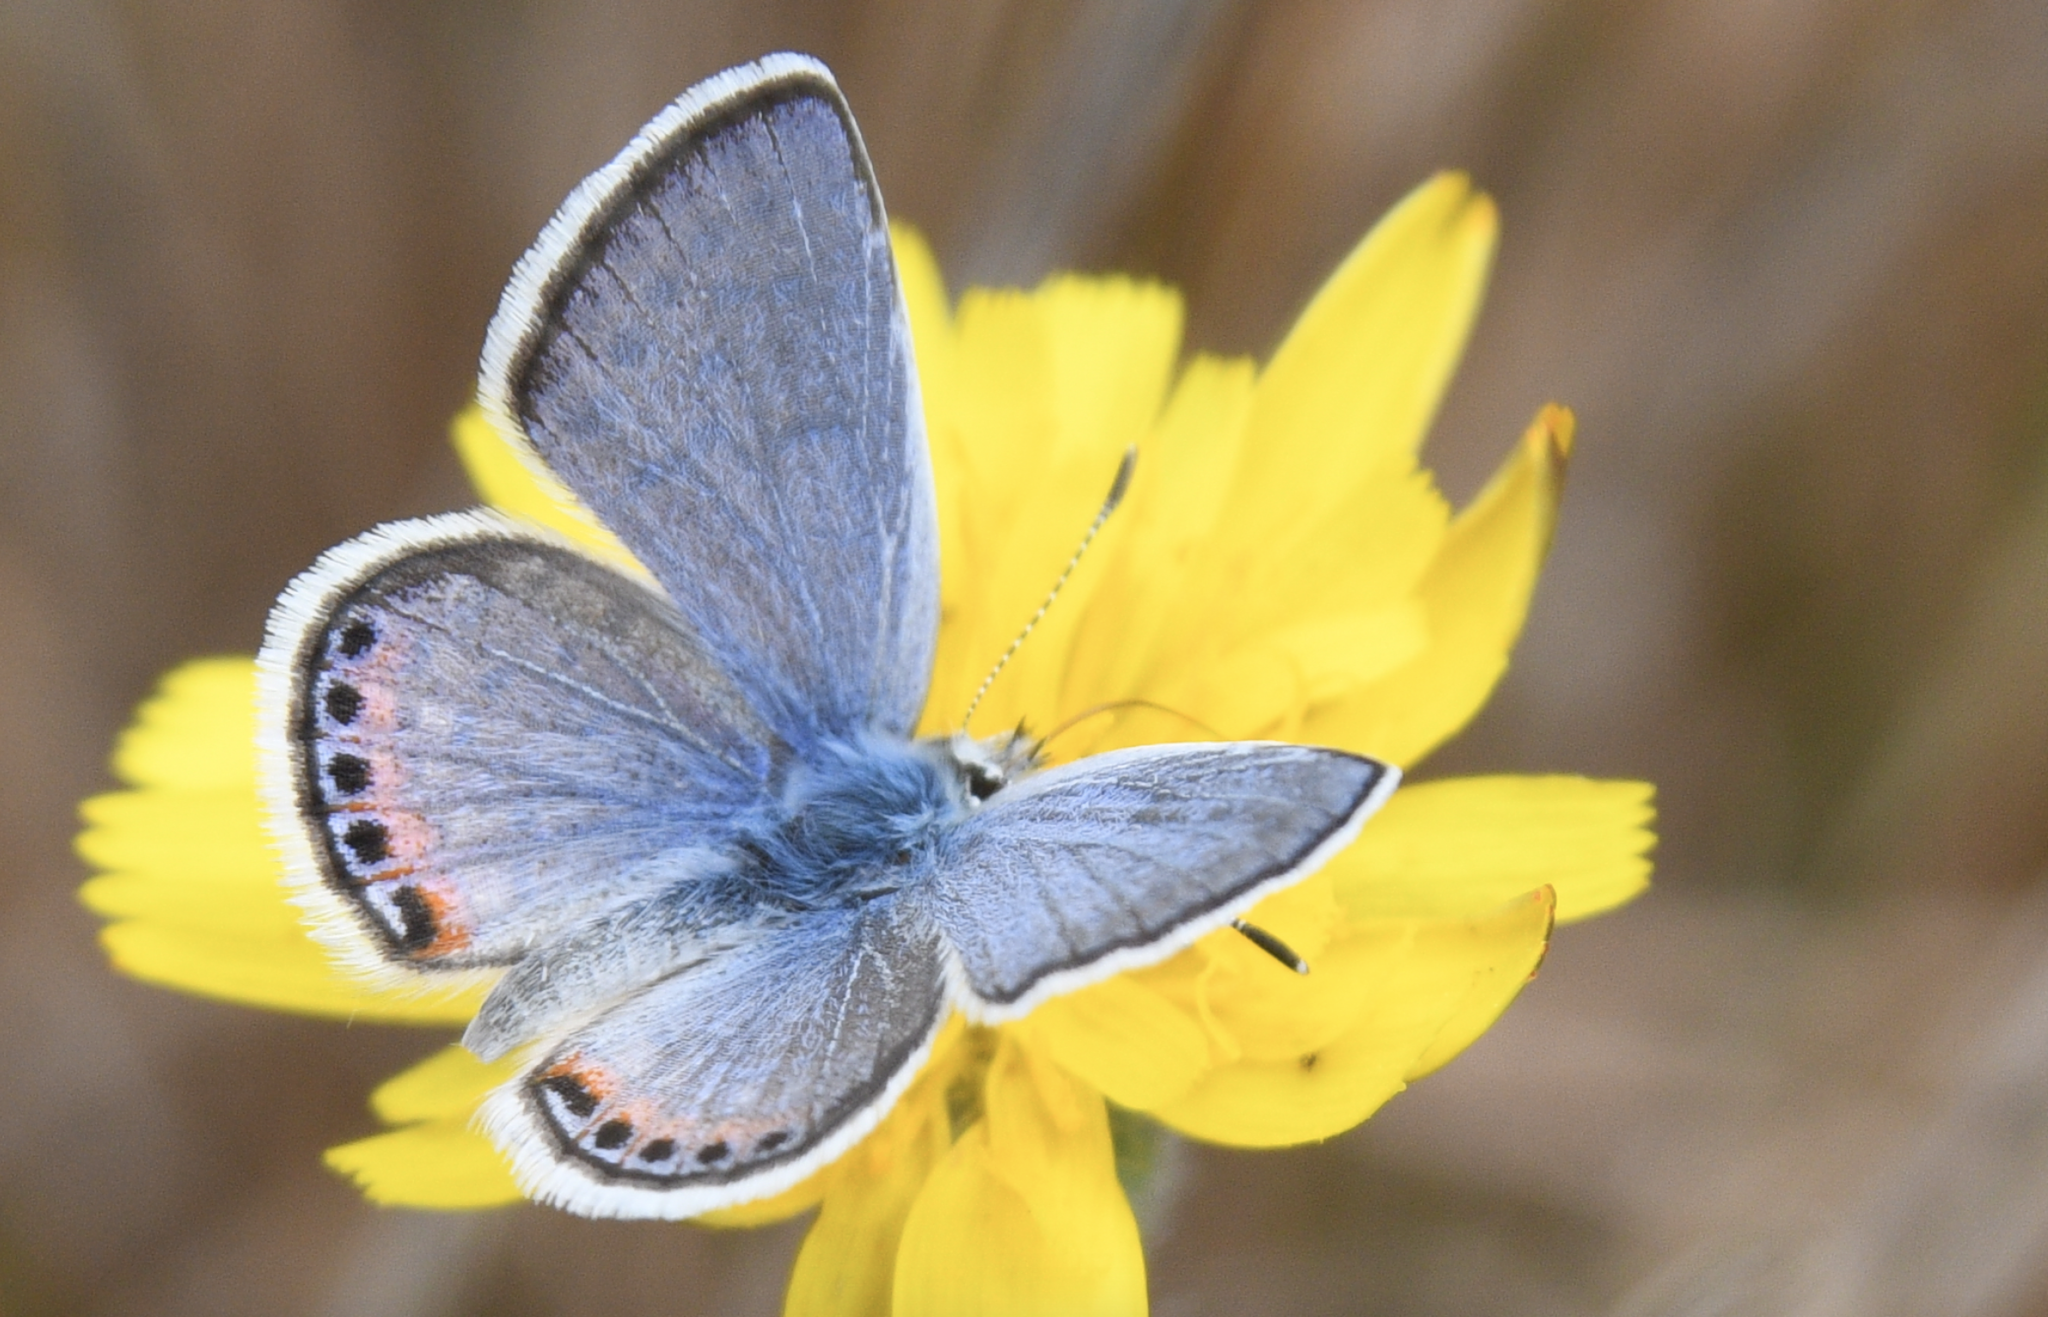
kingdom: Animalia
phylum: Arthropoda
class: Insecta
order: Lepidoptera
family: Lycaenidae
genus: Icaricia
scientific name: Icaricia acmon
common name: Acmon blue
